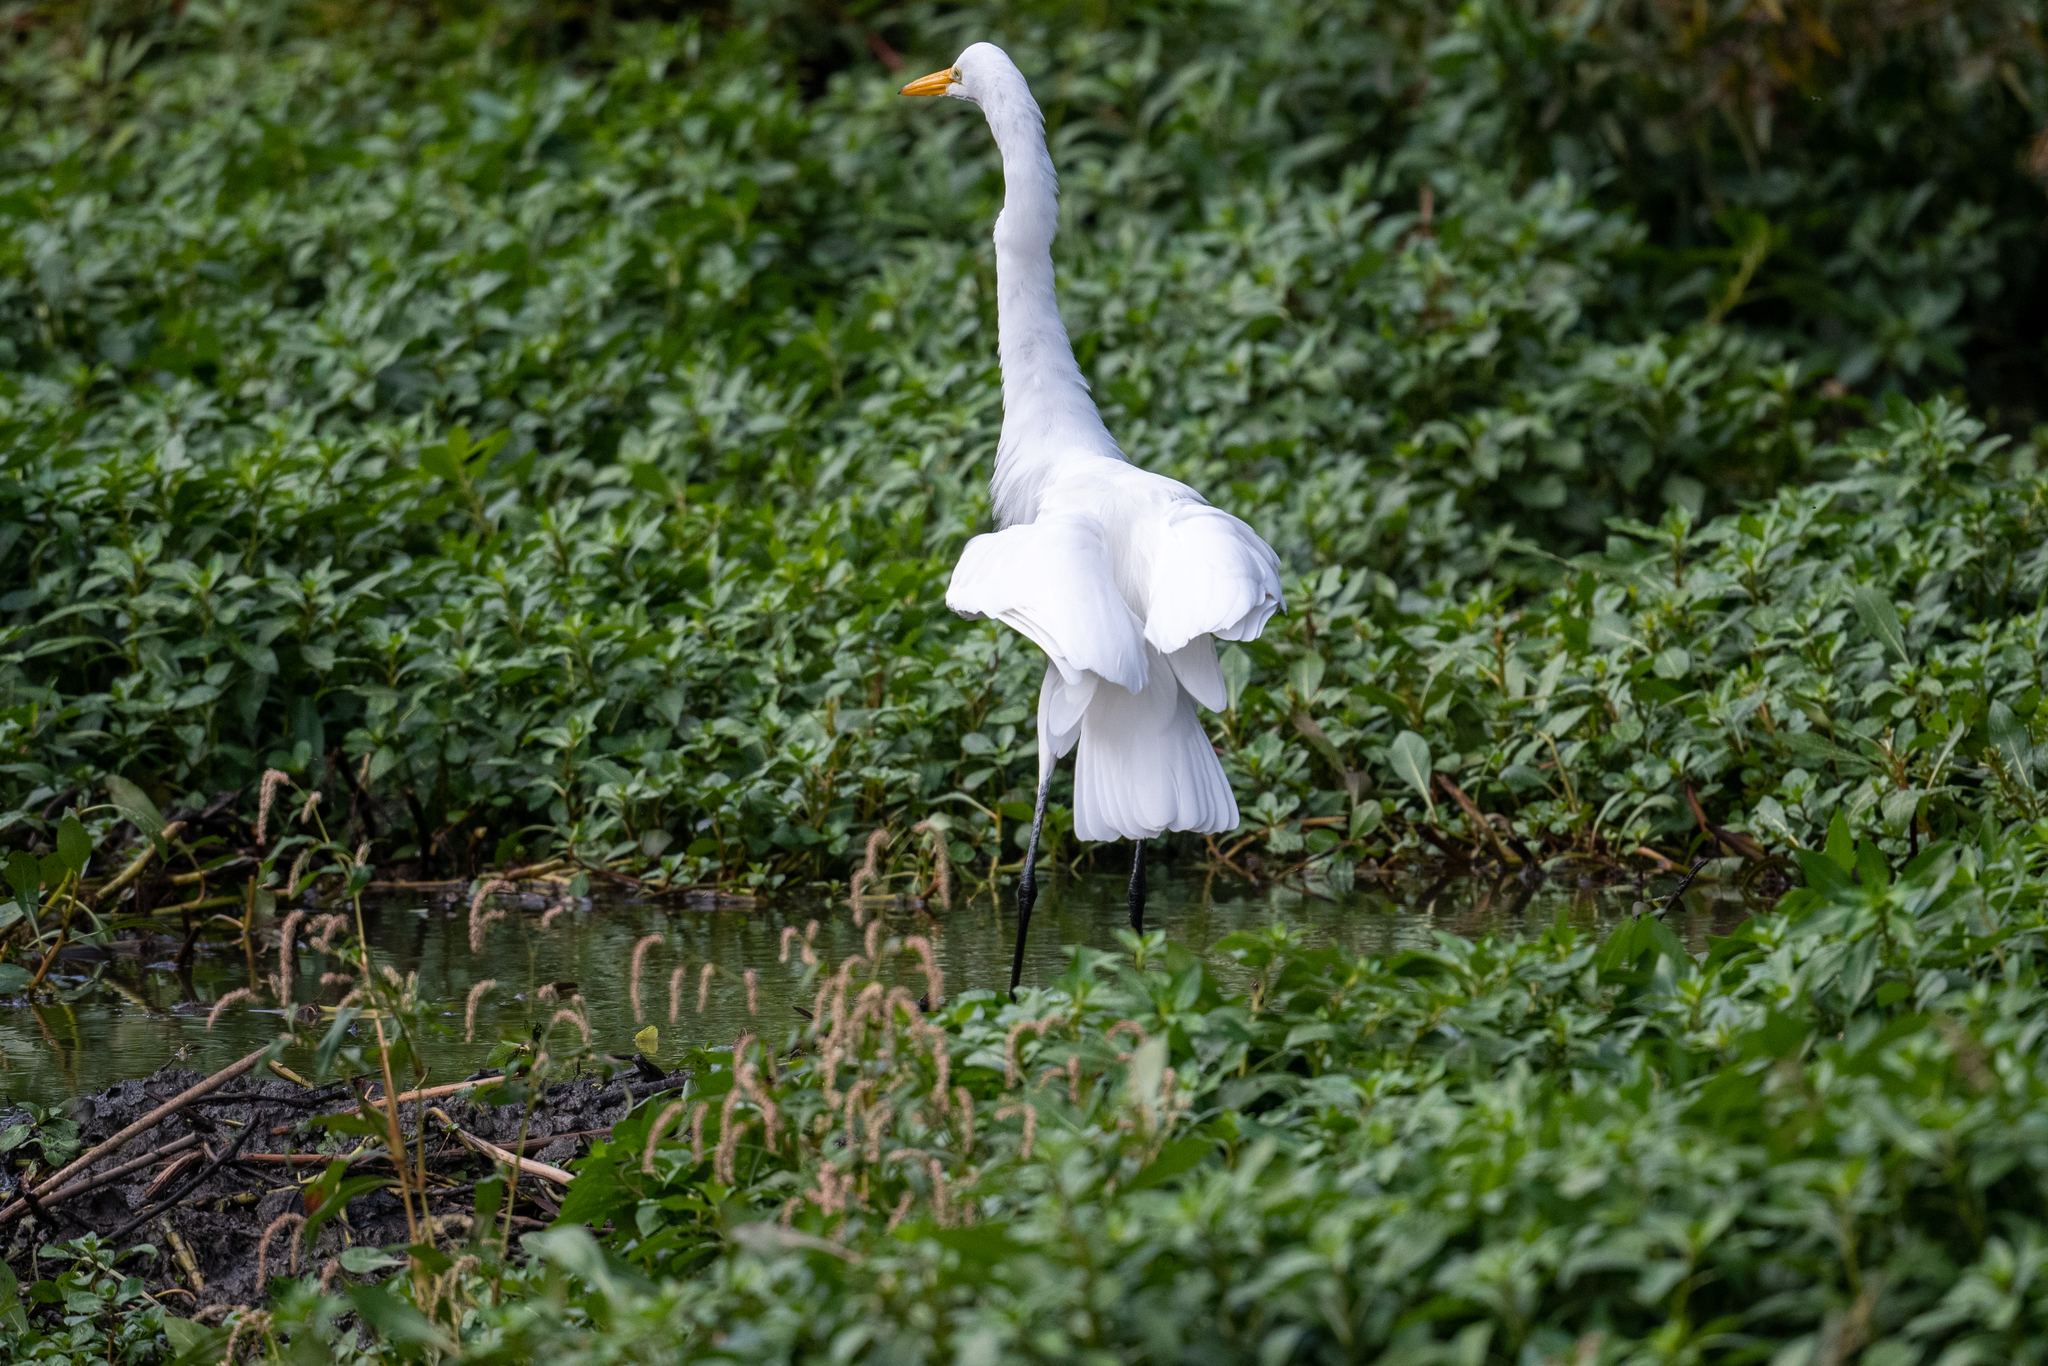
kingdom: Animalia
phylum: Chordata
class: Aves
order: Pelecaniformes
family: Ardeidae
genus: Ardea
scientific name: Ardea alba
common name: Great egret
